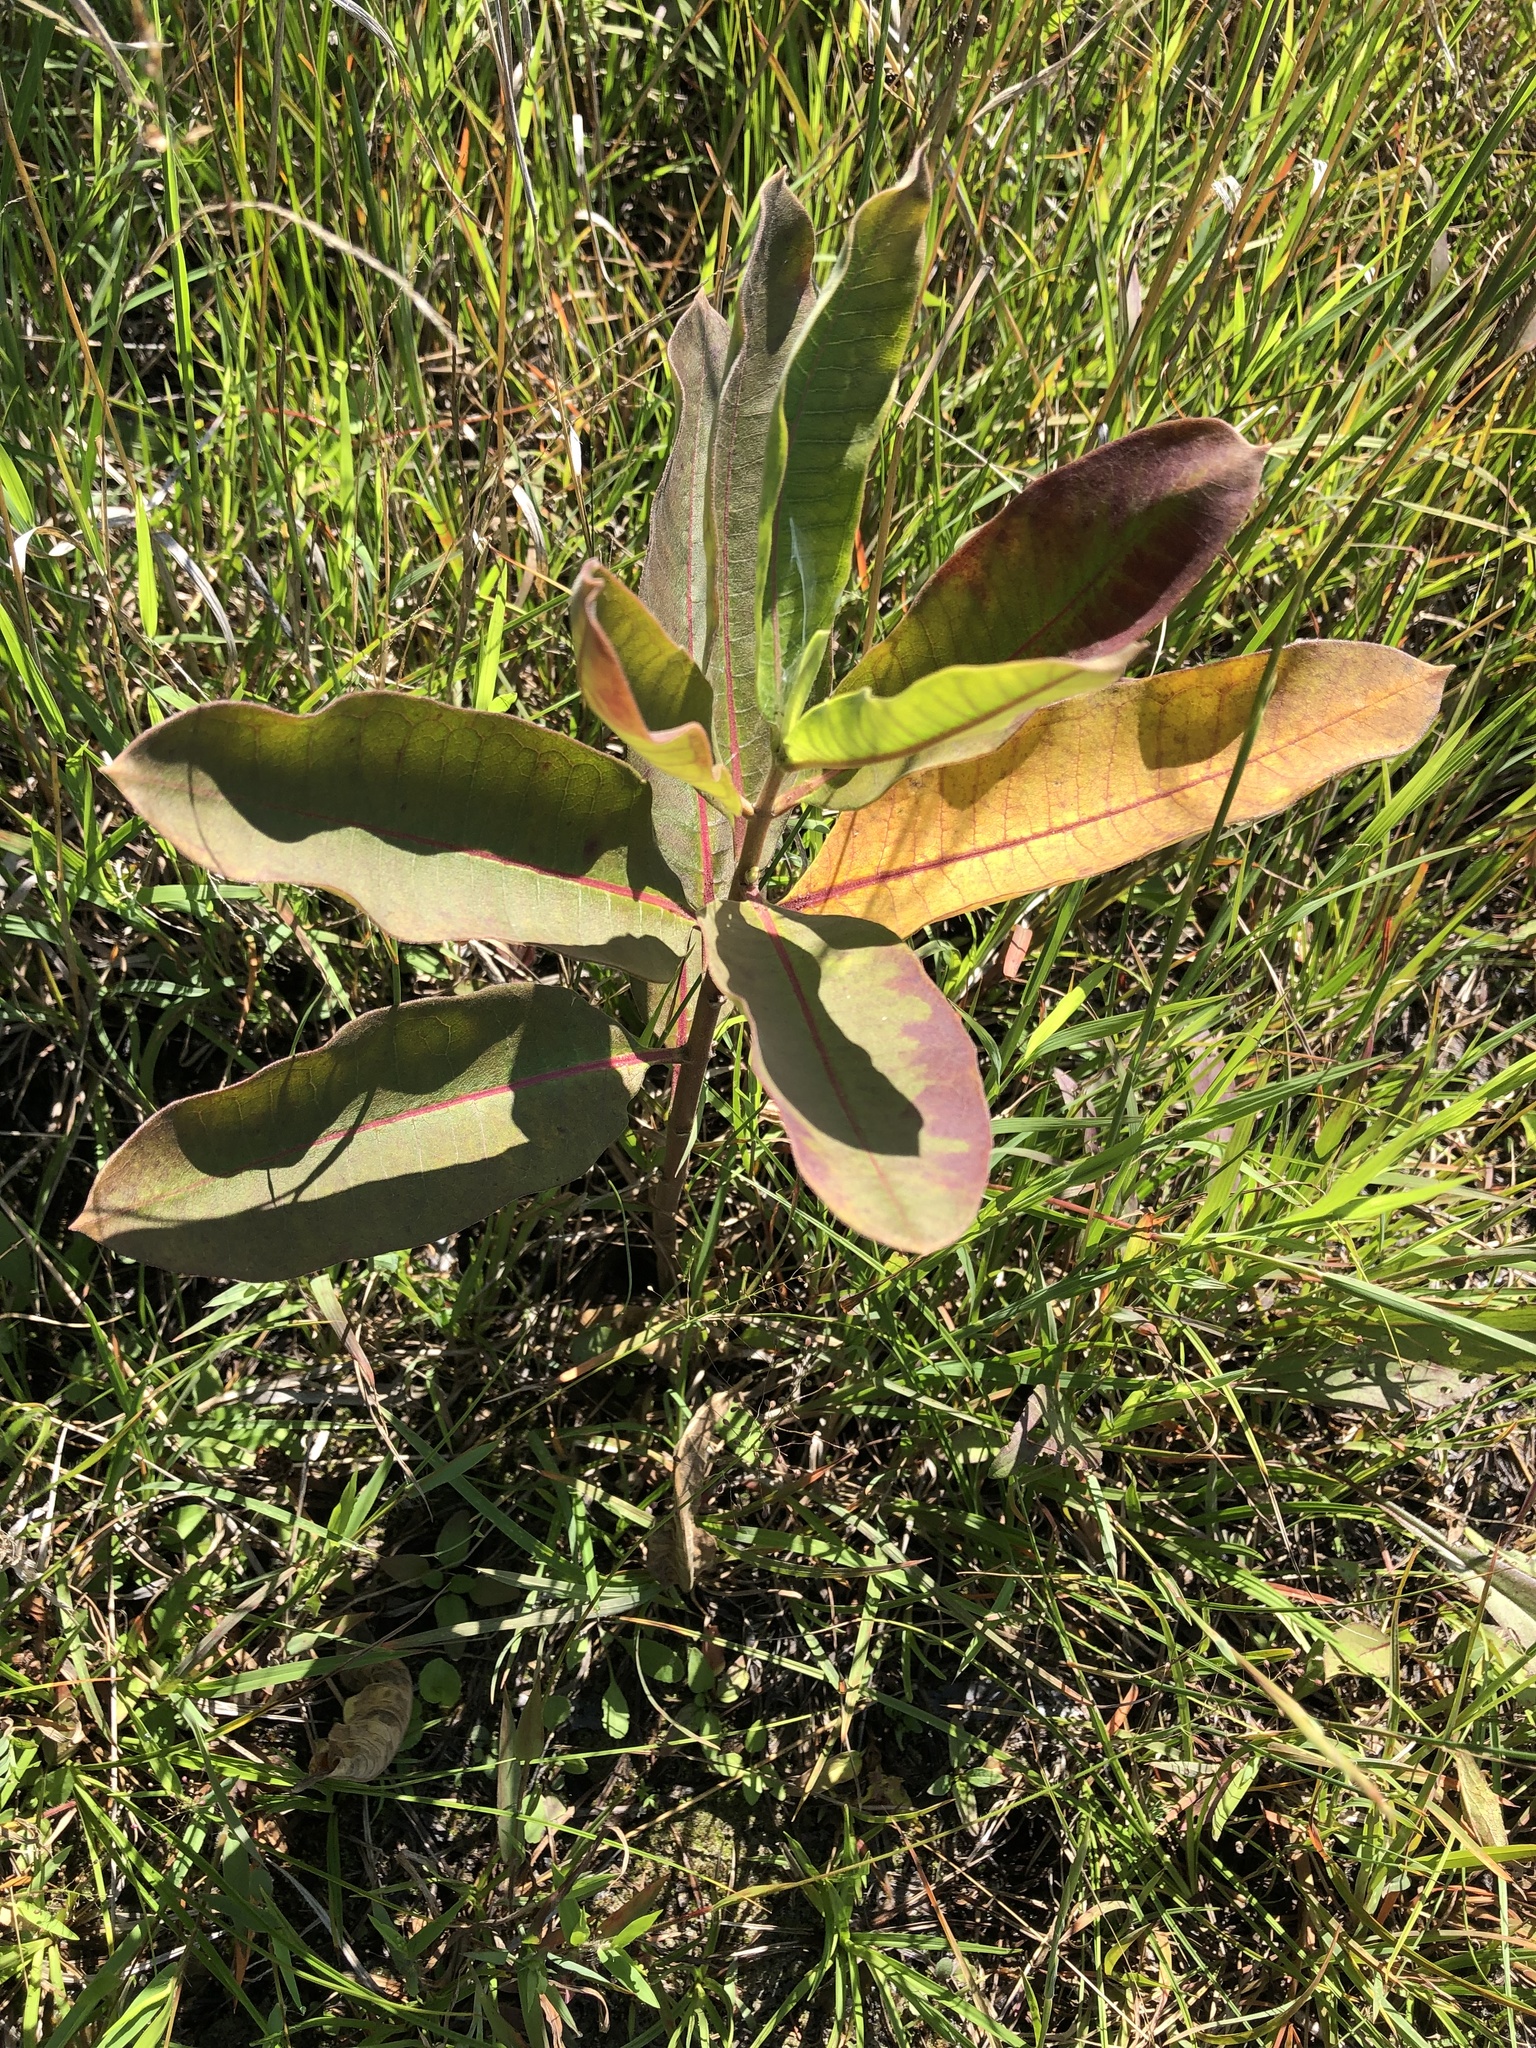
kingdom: Plantae
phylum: Tracheophyta
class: Magnoliopsida
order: Gentianales
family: Apocynaceae
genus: Asclepias
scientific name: Asclepias syriaca
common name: Common milkweed
